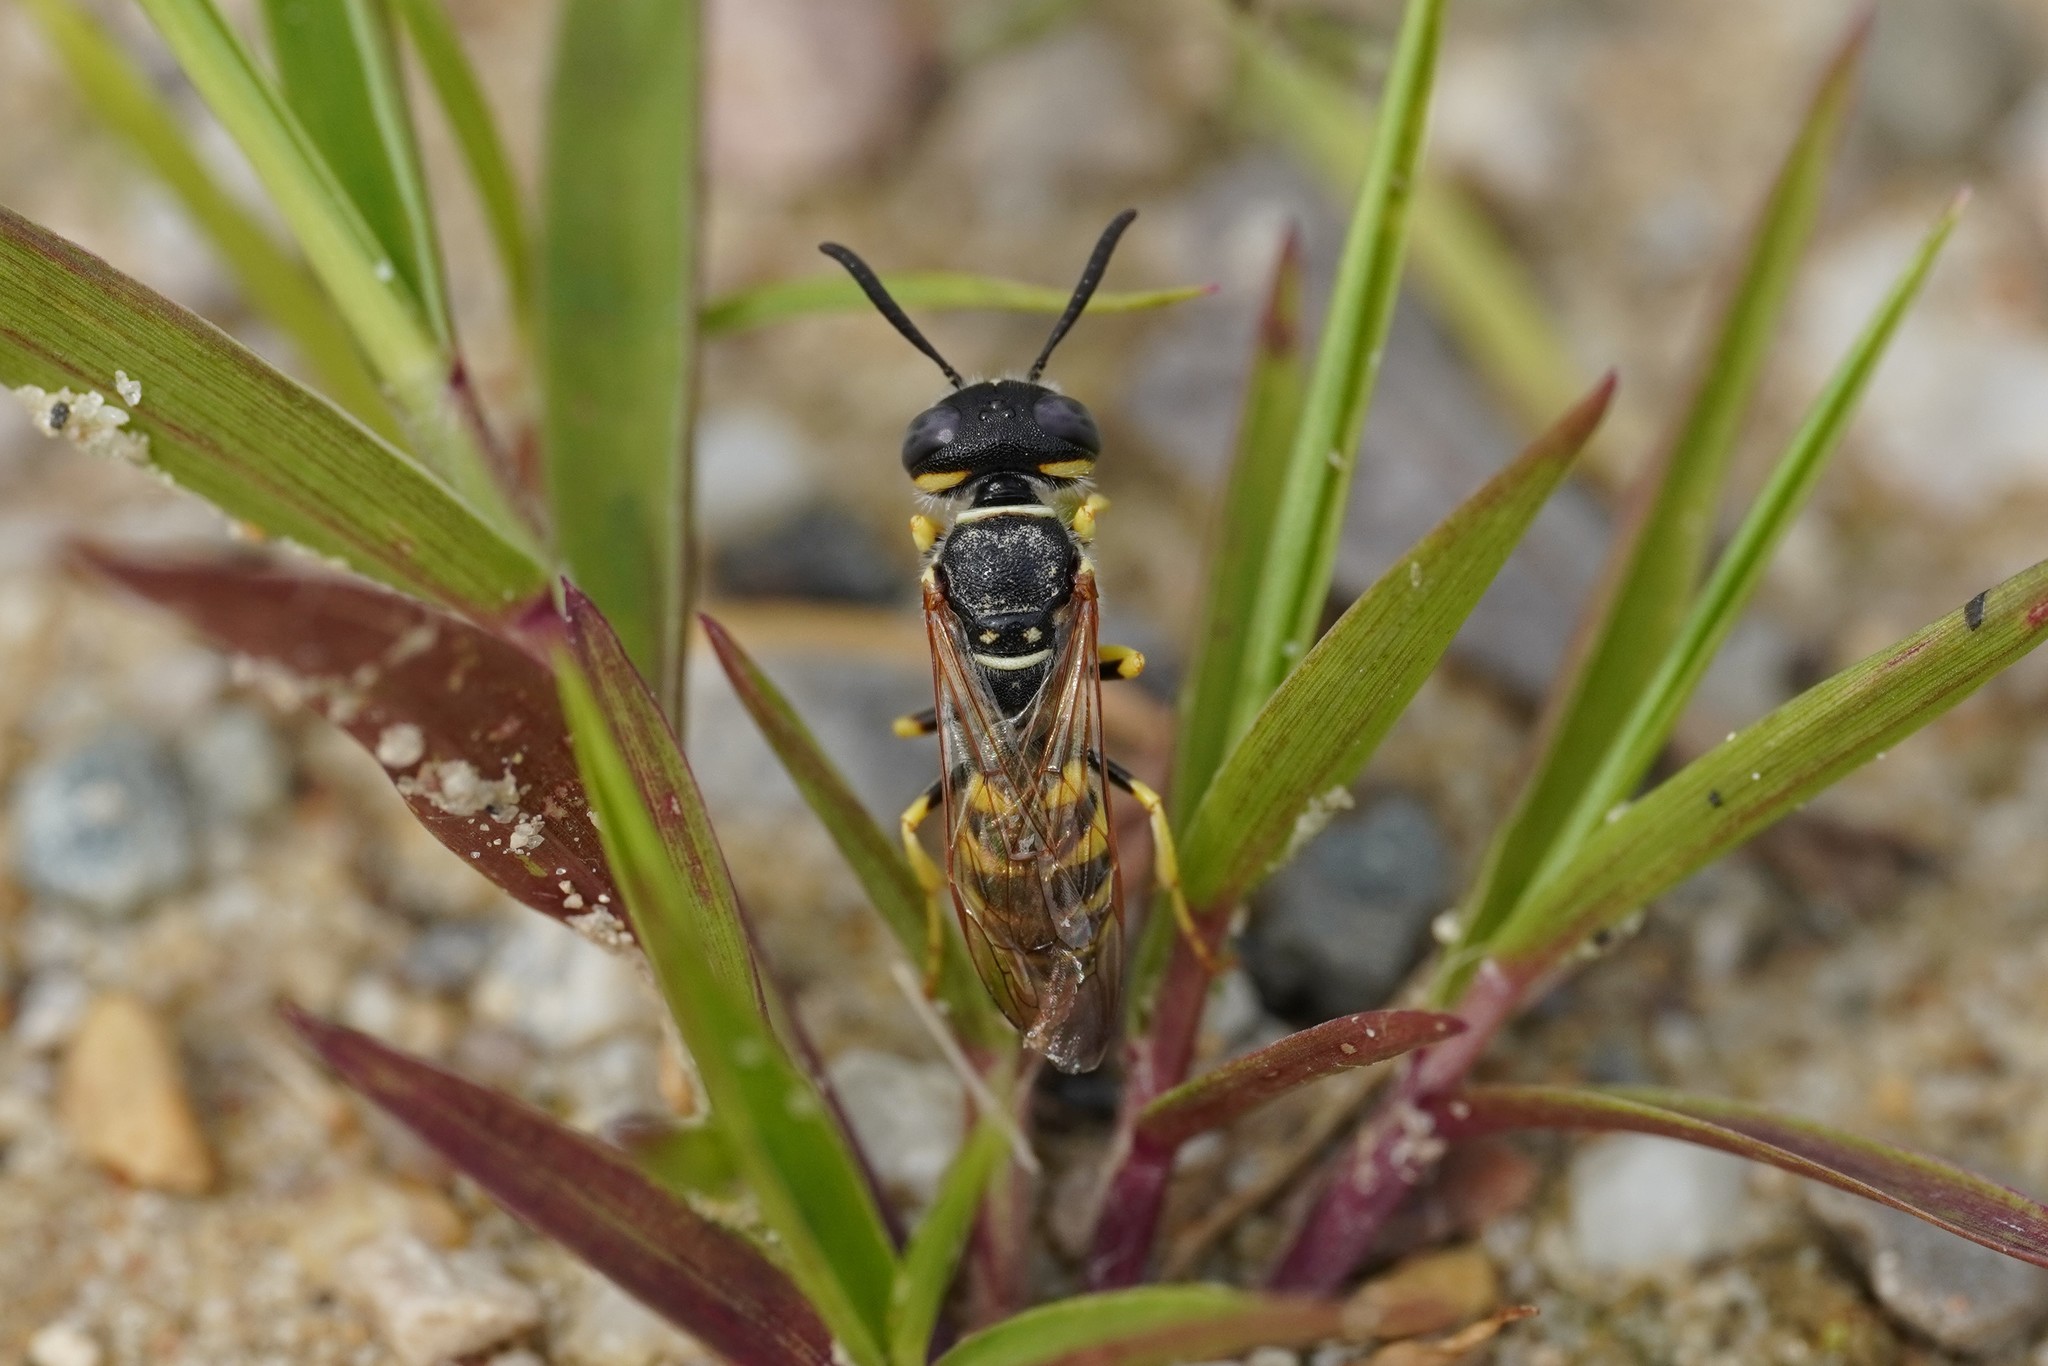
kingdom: Animalia
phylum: Arthropoda
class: Insecta
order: Hymenoptera
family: Crabronidae
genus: Philanthus
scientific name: Philanthus triangulum
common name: Bee wolf
